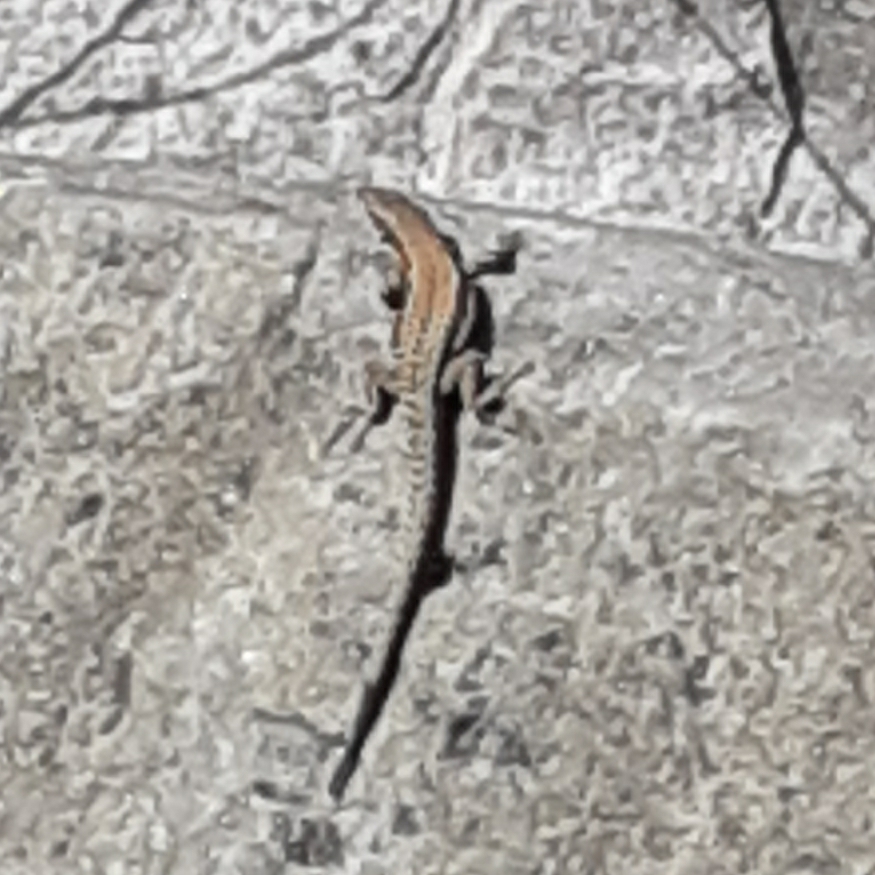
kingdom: Animalia
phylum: Chordata
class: Squamata
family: Lacertidae
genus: Podarcis
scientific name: Podarcis muralis
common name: Common wall lizard
